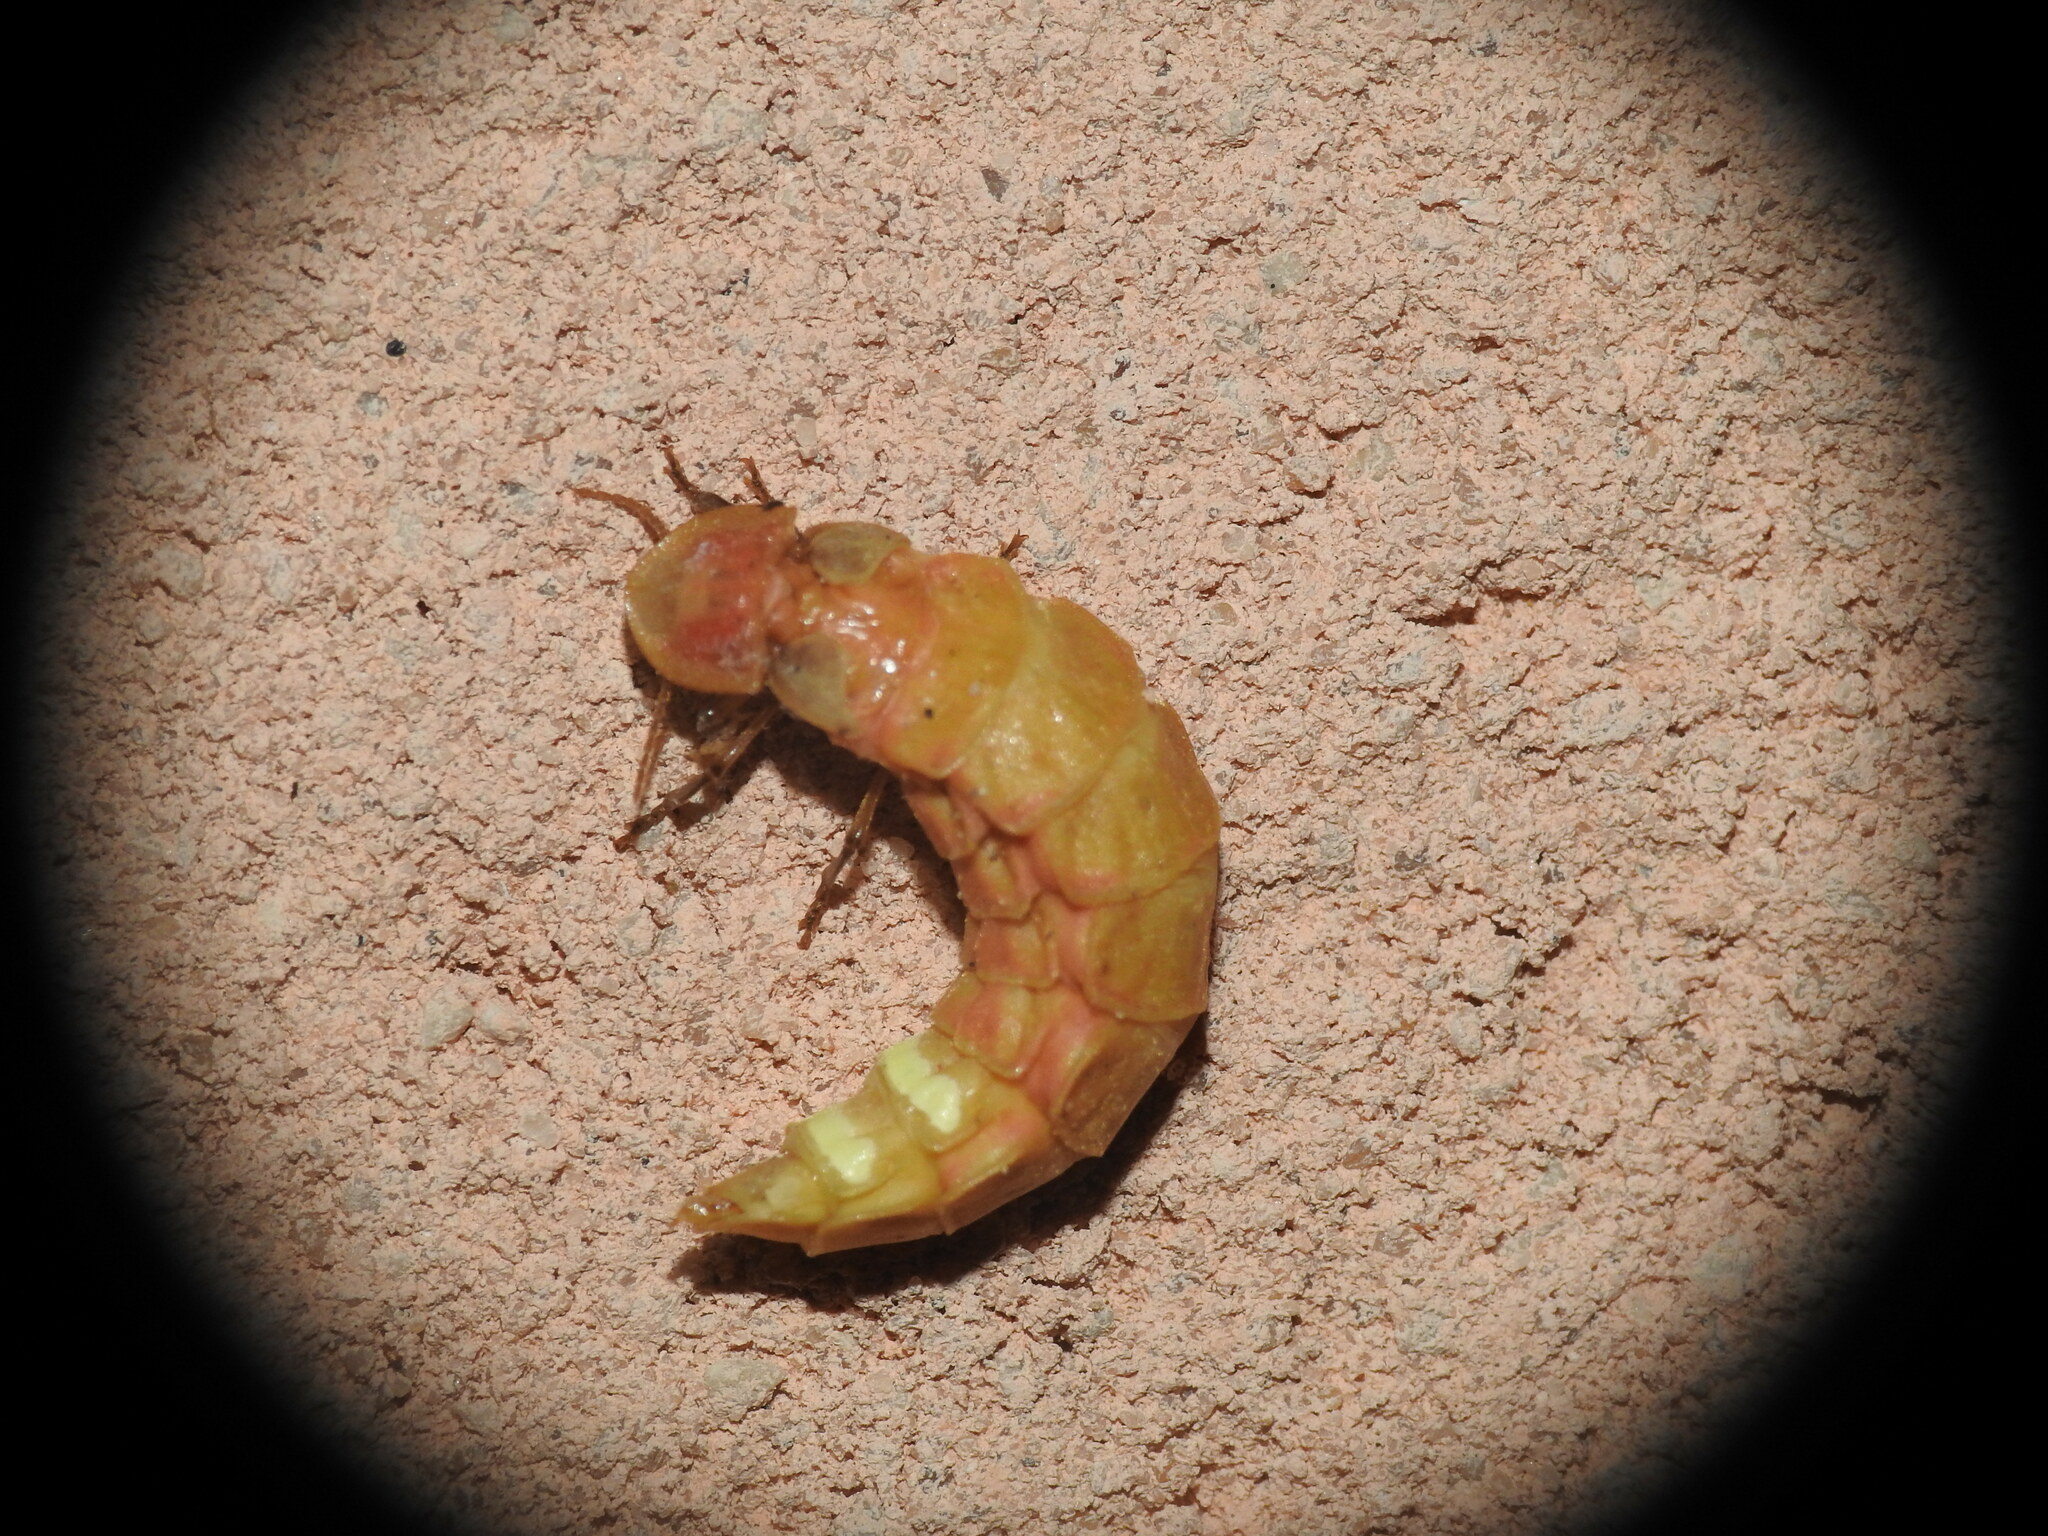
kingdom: Animalia
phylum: Arthropoda
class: Insecta
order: Coleoptera
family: Lampyridae
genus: Nyctophila
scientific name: Nyctophila reichii
